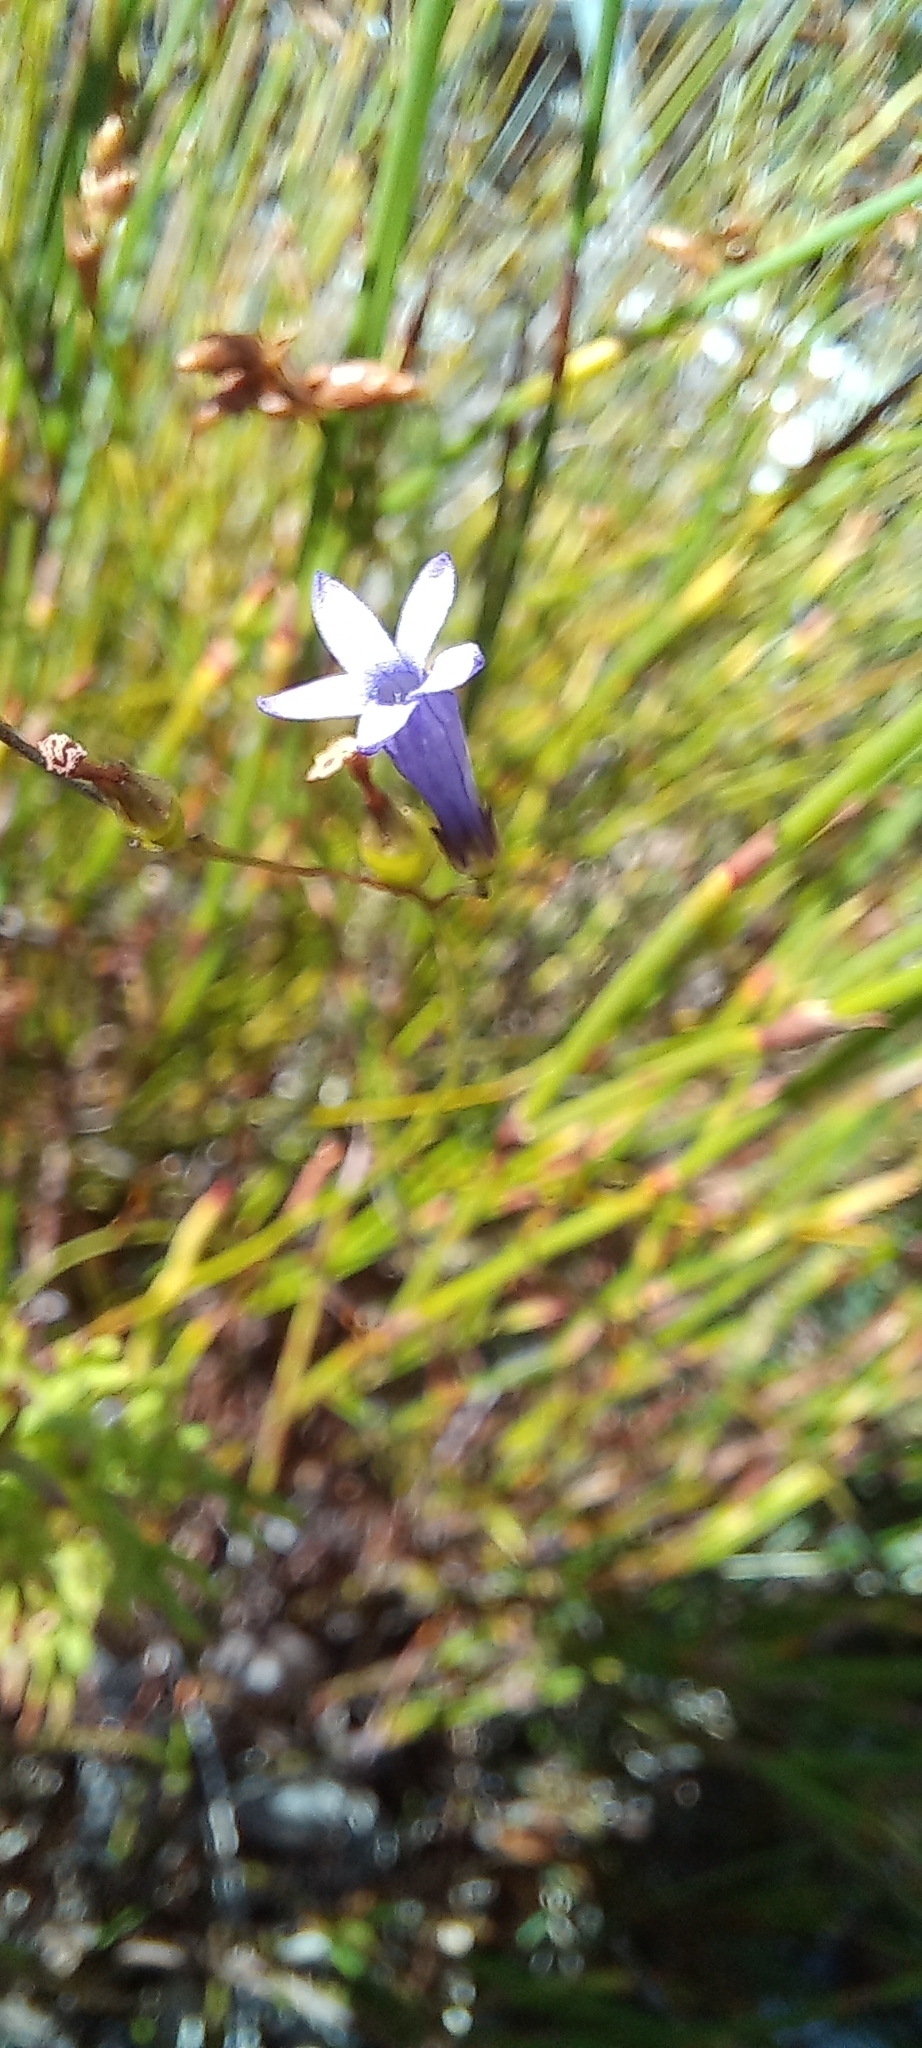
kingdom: Plantae
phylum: Tracheophyta
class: Magnoliopsida
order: Asterales
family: Campanulaceae
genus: Siphocodon
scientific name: Siphocodon spartioides
